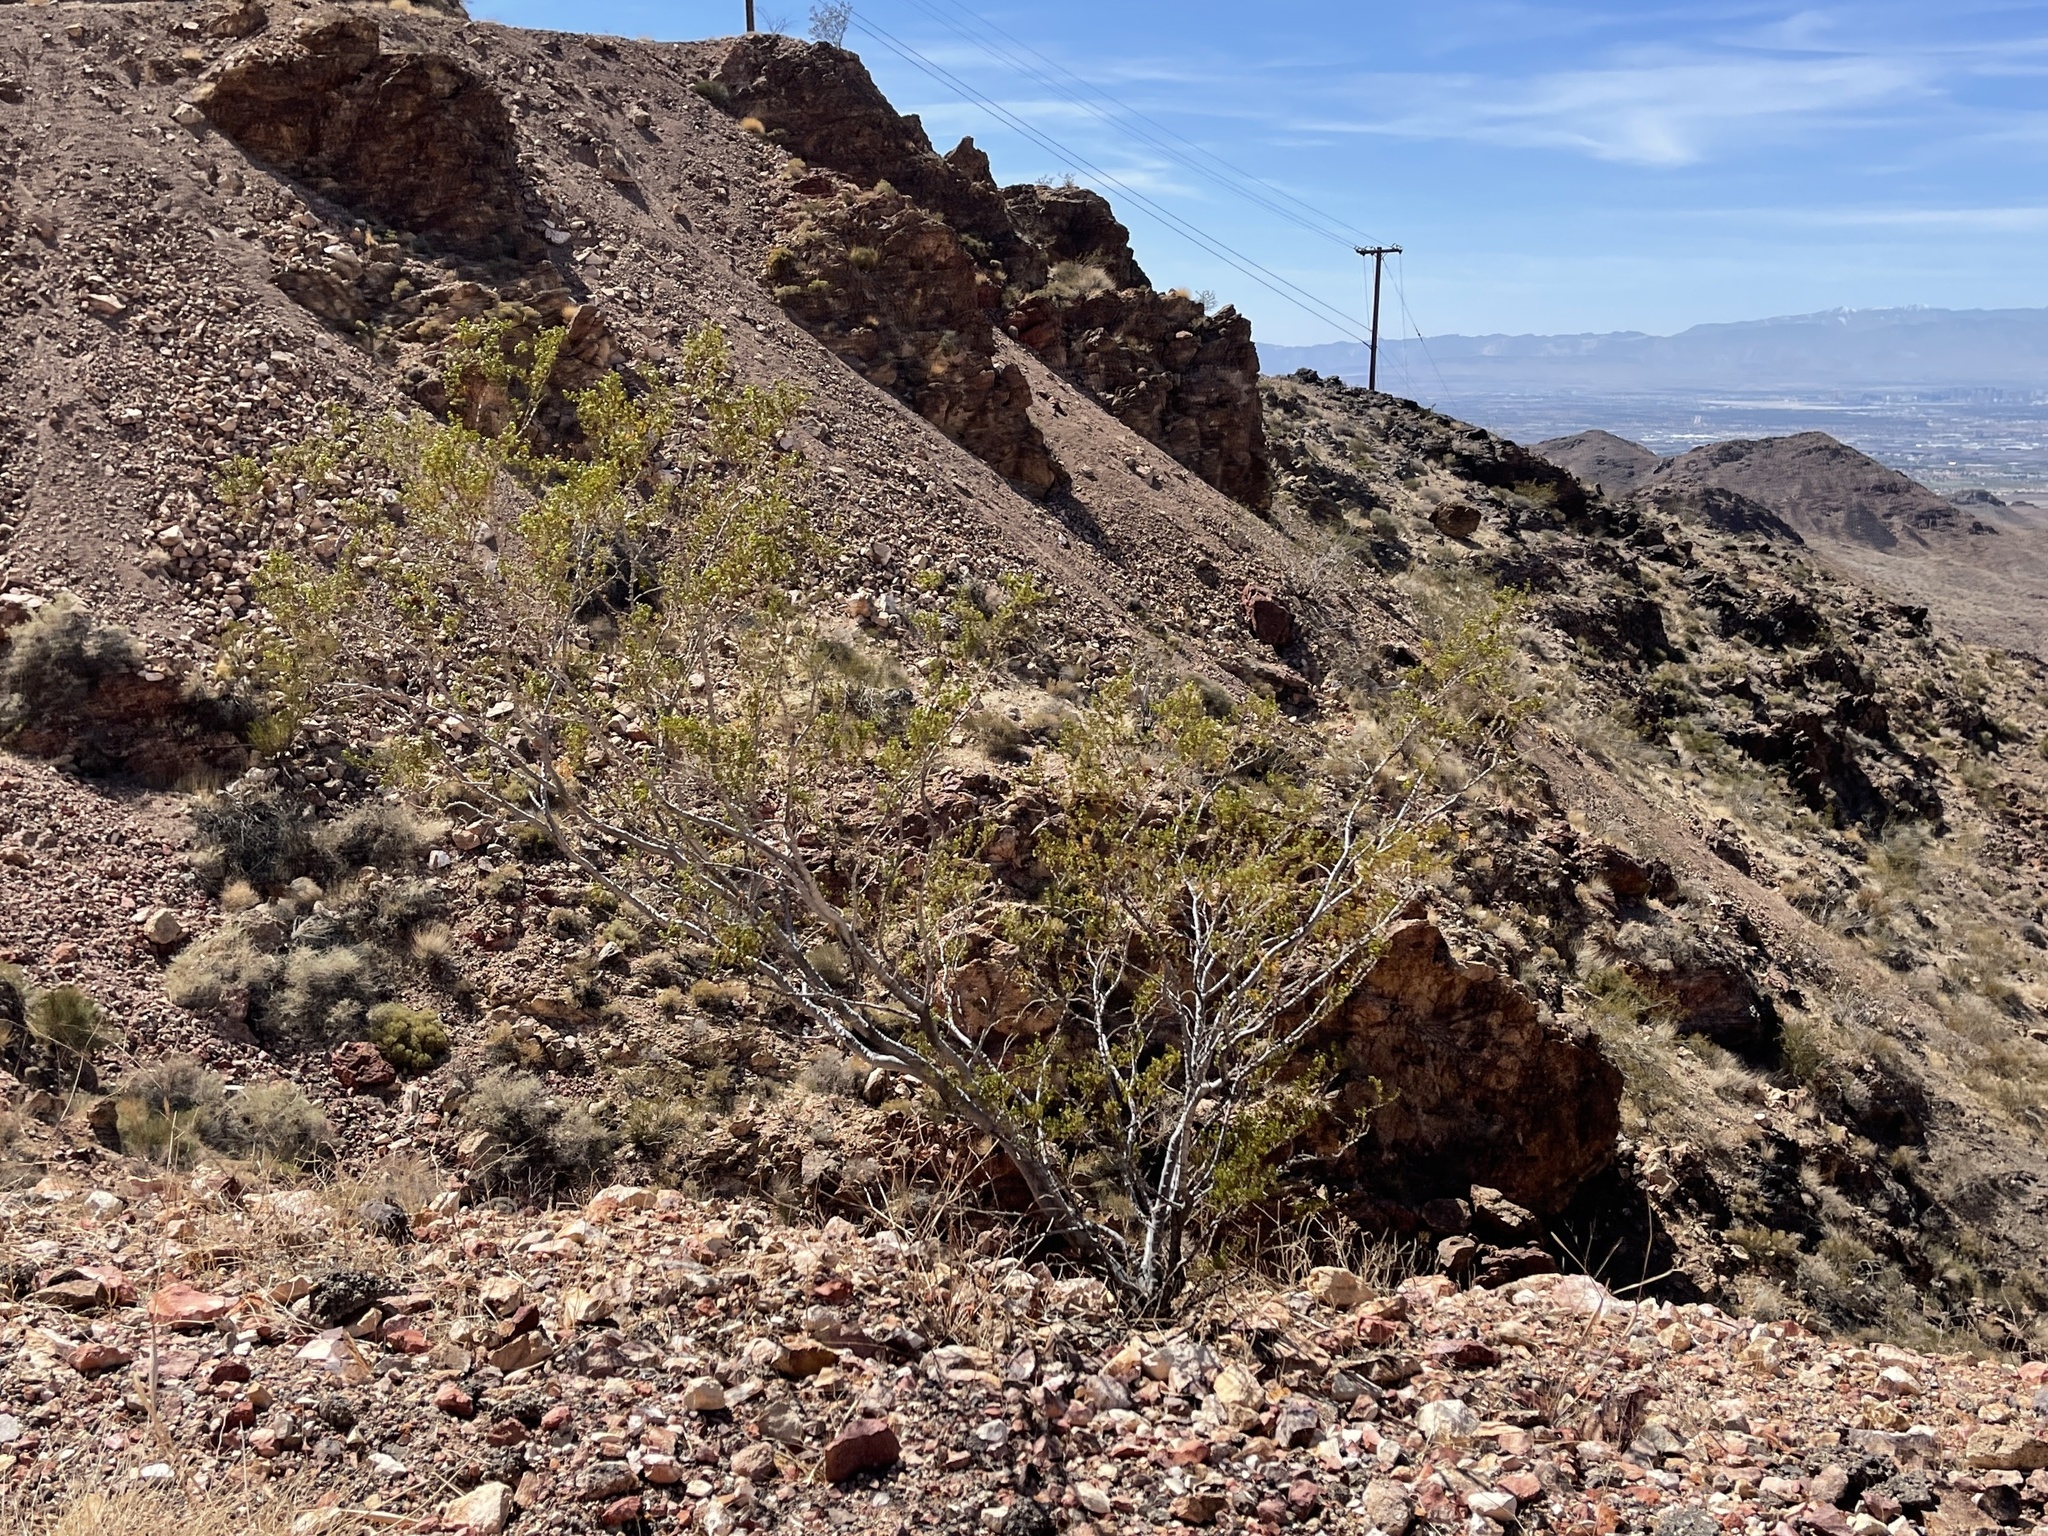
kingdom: Plantae
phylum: Tracheophyta
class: Magnoliopsida
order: Zygophyllales
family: Zygophyllaceae
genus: Larrea
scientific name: Larrea tridentata
